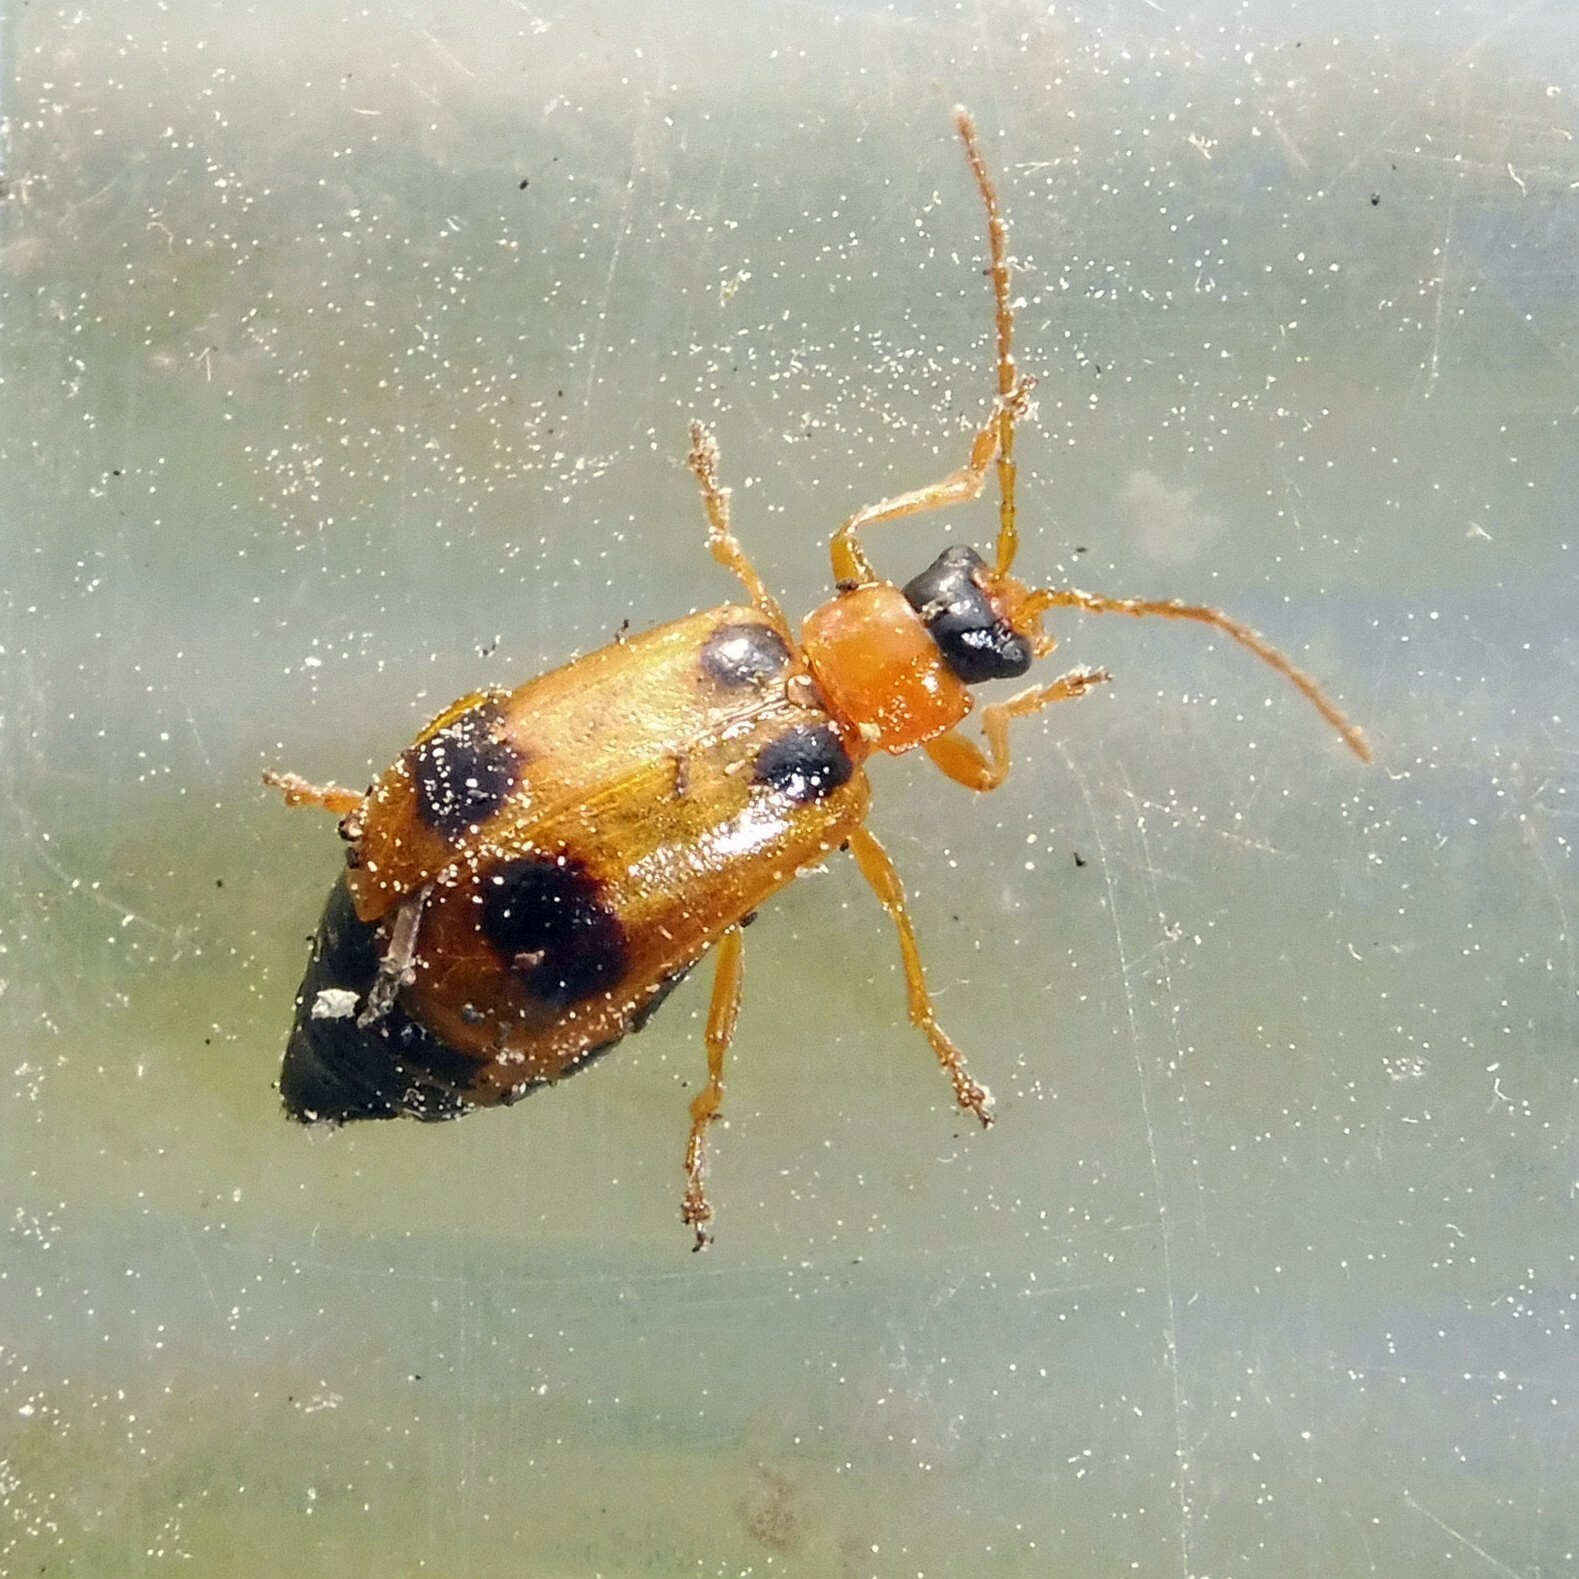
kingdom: Animalia
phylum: Arthropoda
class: Insecta
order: Coleoptera
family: Chrysomelidae
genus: Phyllobrotica
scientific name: Phyllobrotica quadrimaculata
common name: Skullcap leaf beetle
